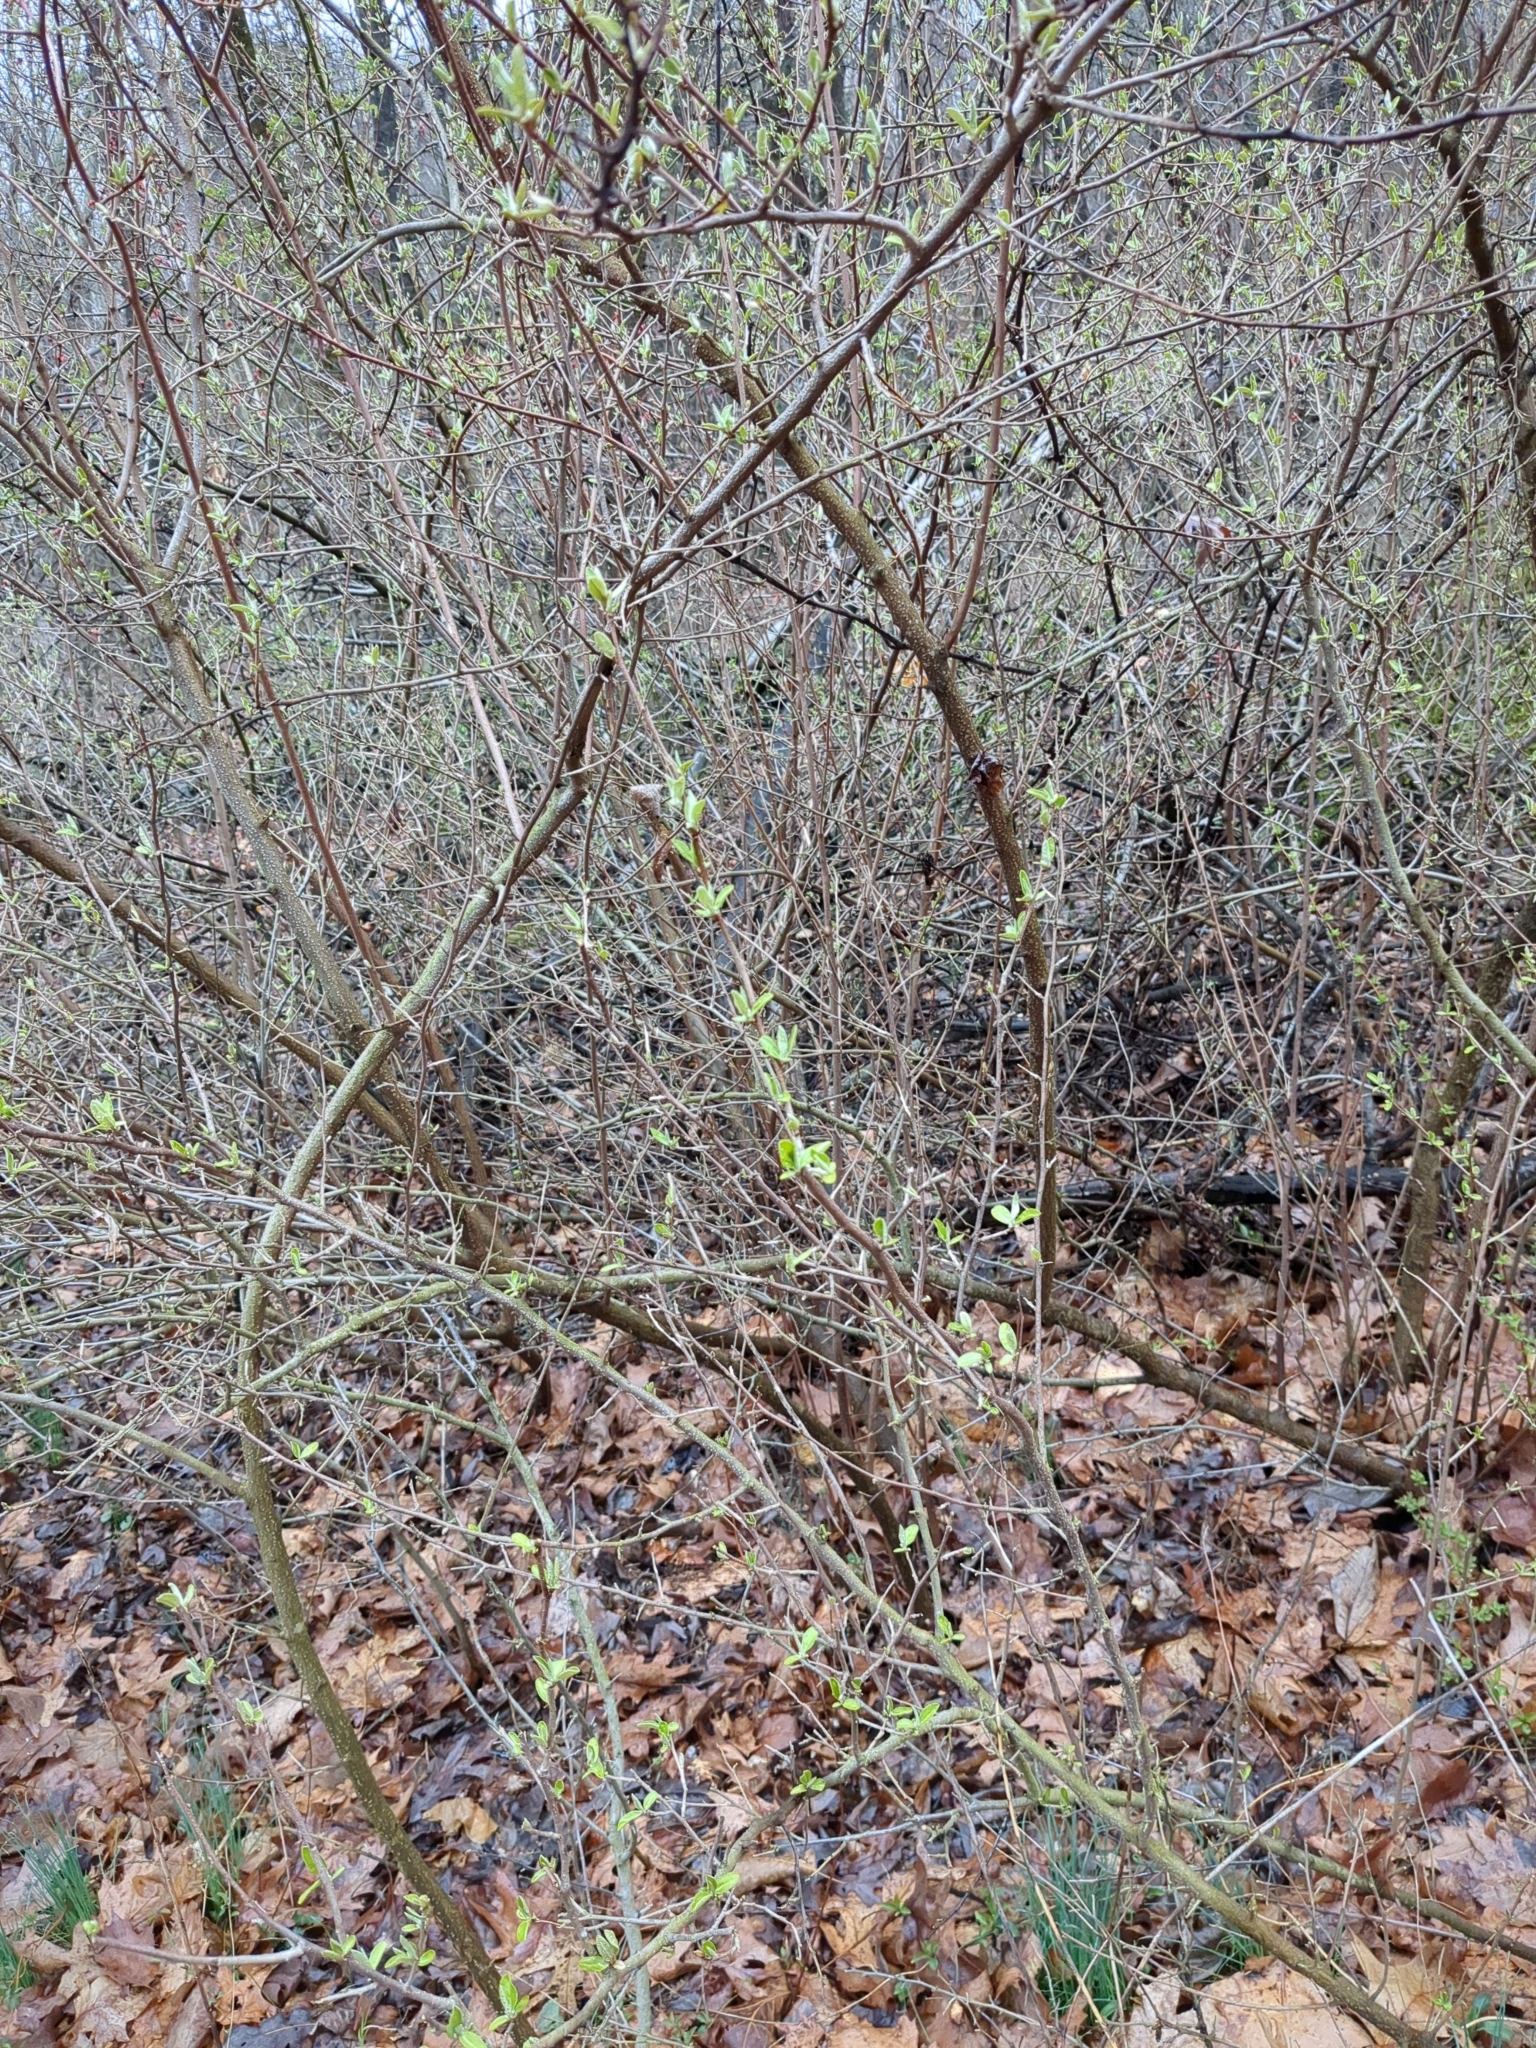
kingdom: Plantae
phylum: Tracheophyta
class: Magnoliopsida
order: Rosales
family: Elaeagnaceae
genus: Elaeagnus
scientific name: Elaeagnus umbellata
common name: Autumn olive
